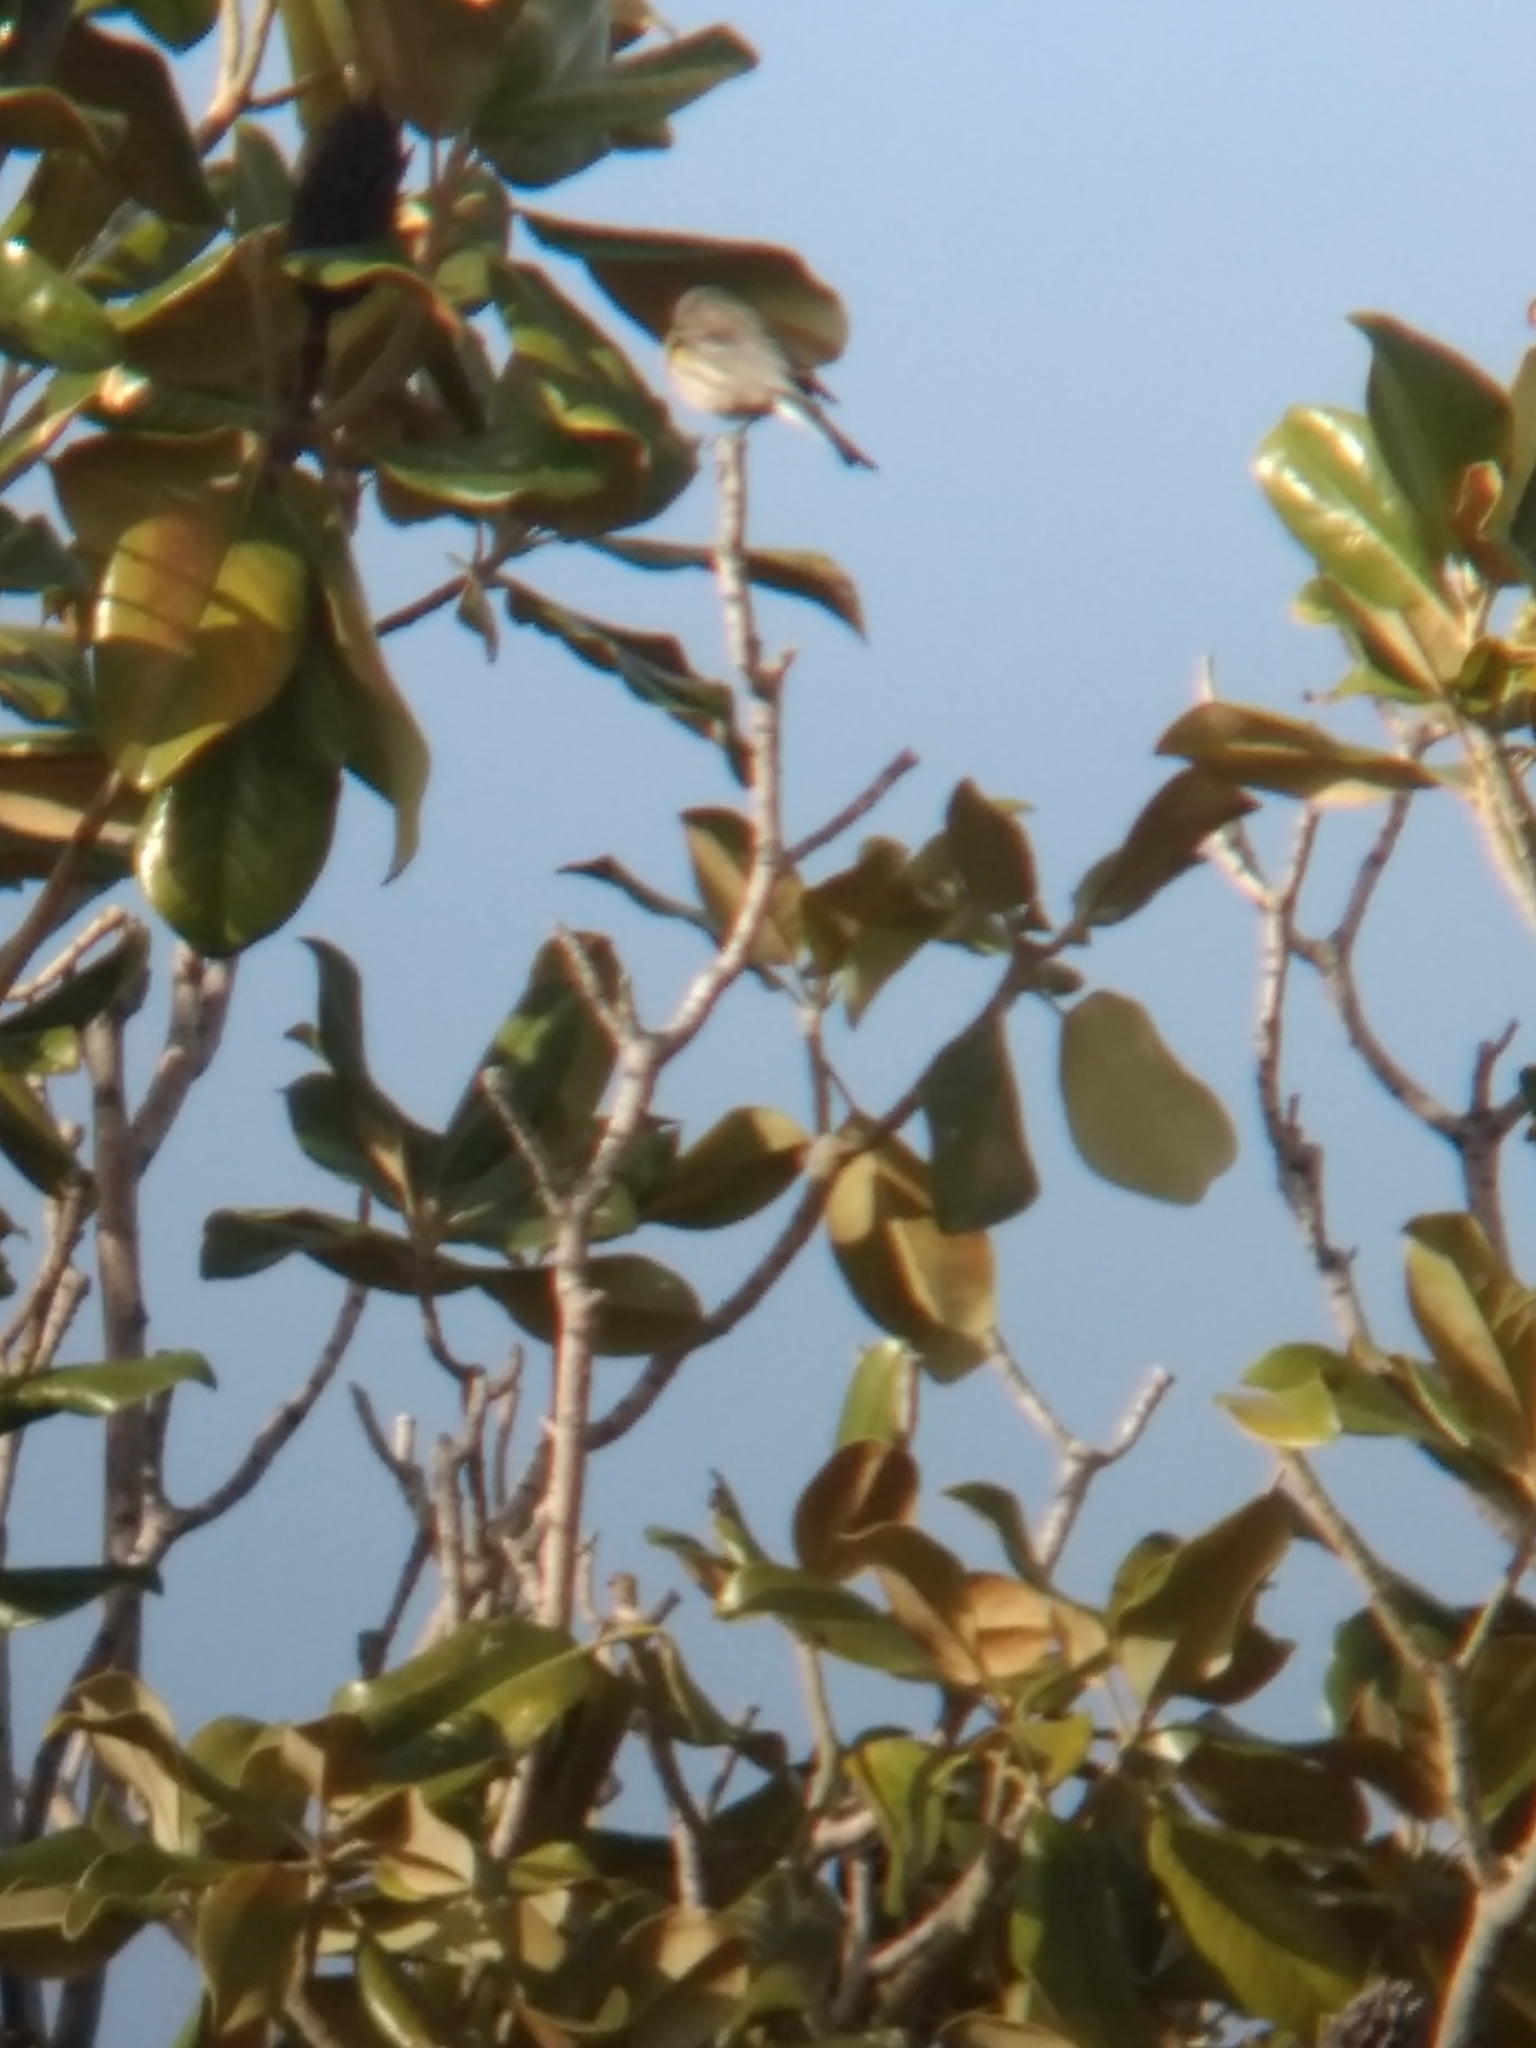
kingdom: Animalia
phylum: Chordata
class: Aves
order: Passeriformes
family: Parulidae
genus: Setophaga
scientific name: Setophaga coronata
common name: Myrtle warbler
